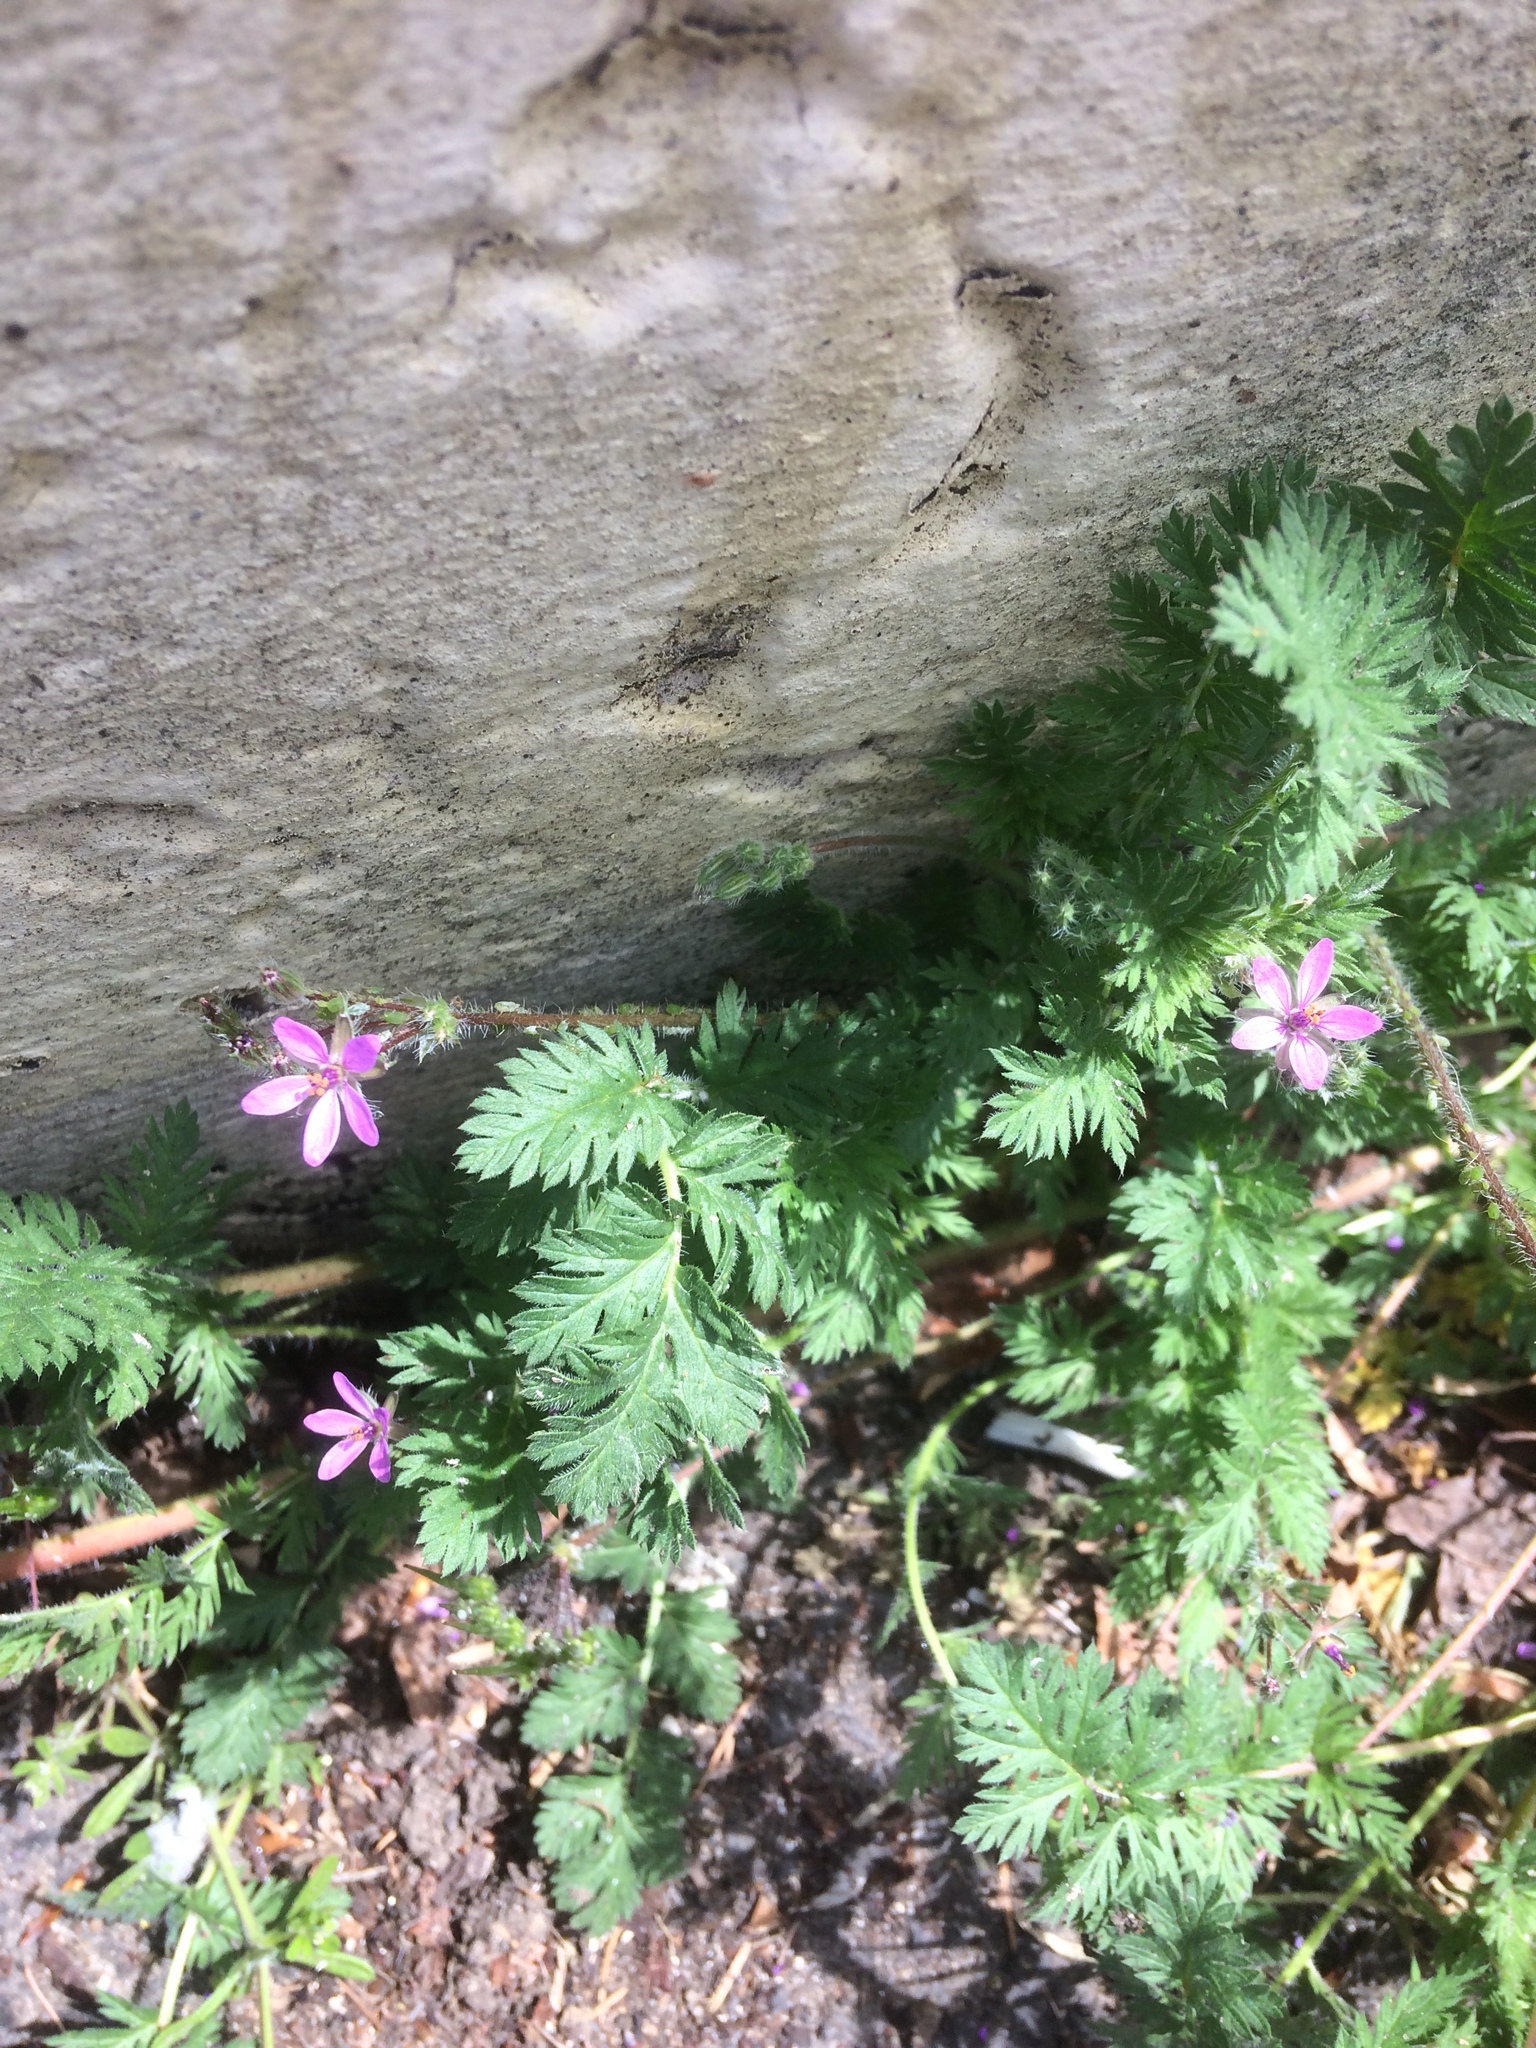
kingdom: Plantae
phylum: Tracheophyta
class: Magnoliopsida
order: Geraniales
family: Geraniaceae
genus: Erodium
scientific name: Erodium cicutarium
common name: Common stork's-bill
